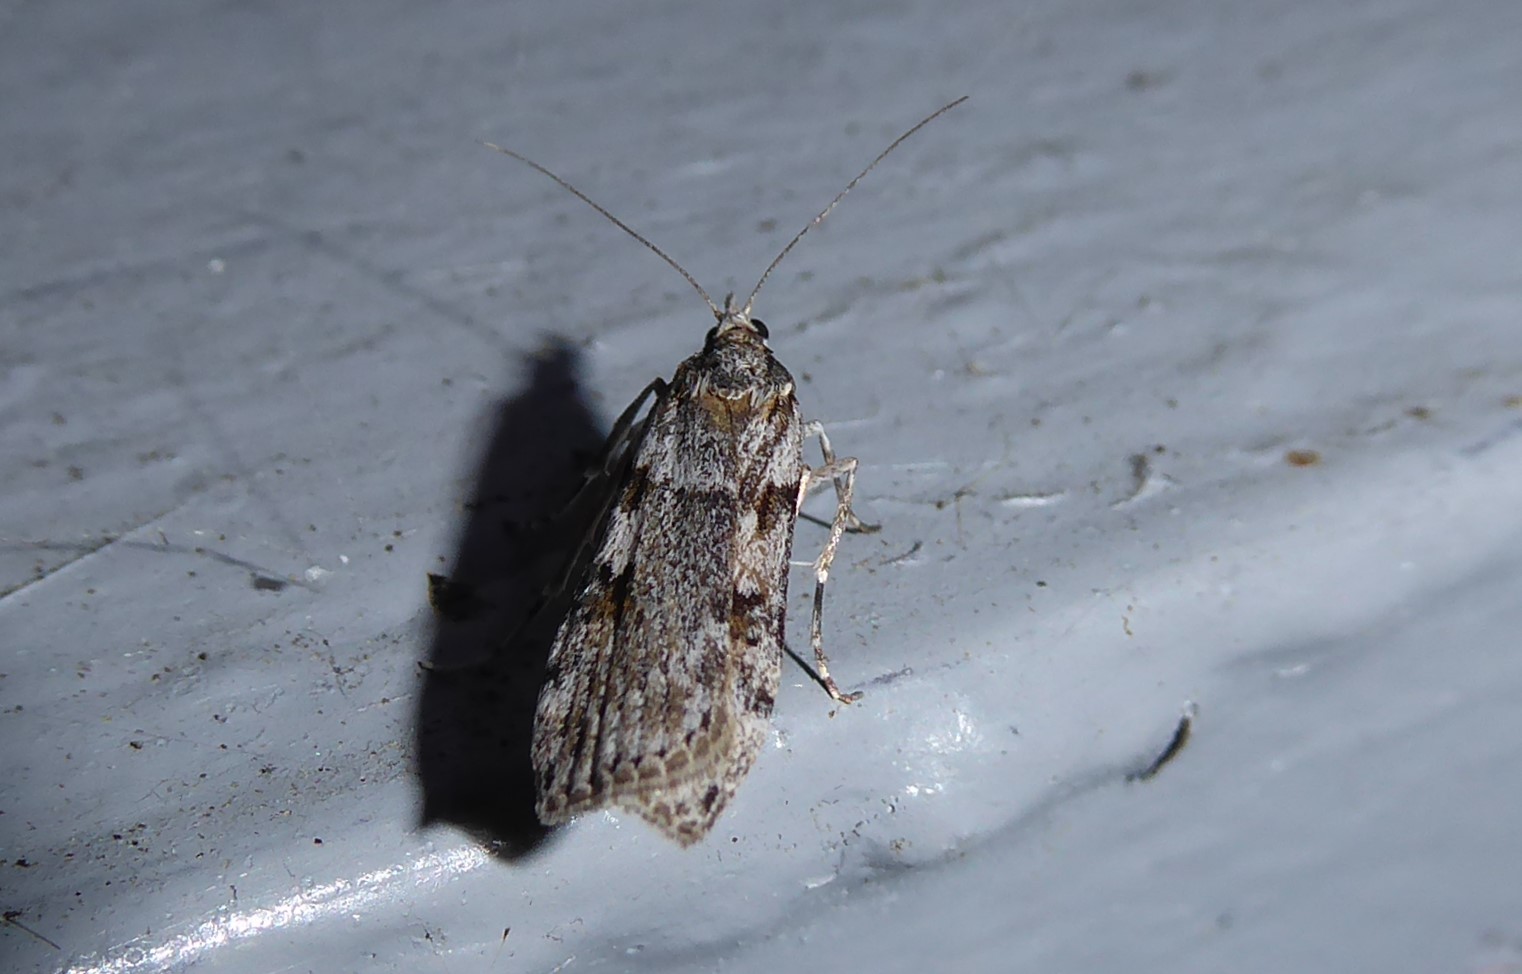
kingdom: Animalia
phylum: Arthropoda
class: Insecta
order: Lepidoptera
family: Crambidae
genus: Scoparia
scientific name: Scoparia halopis
